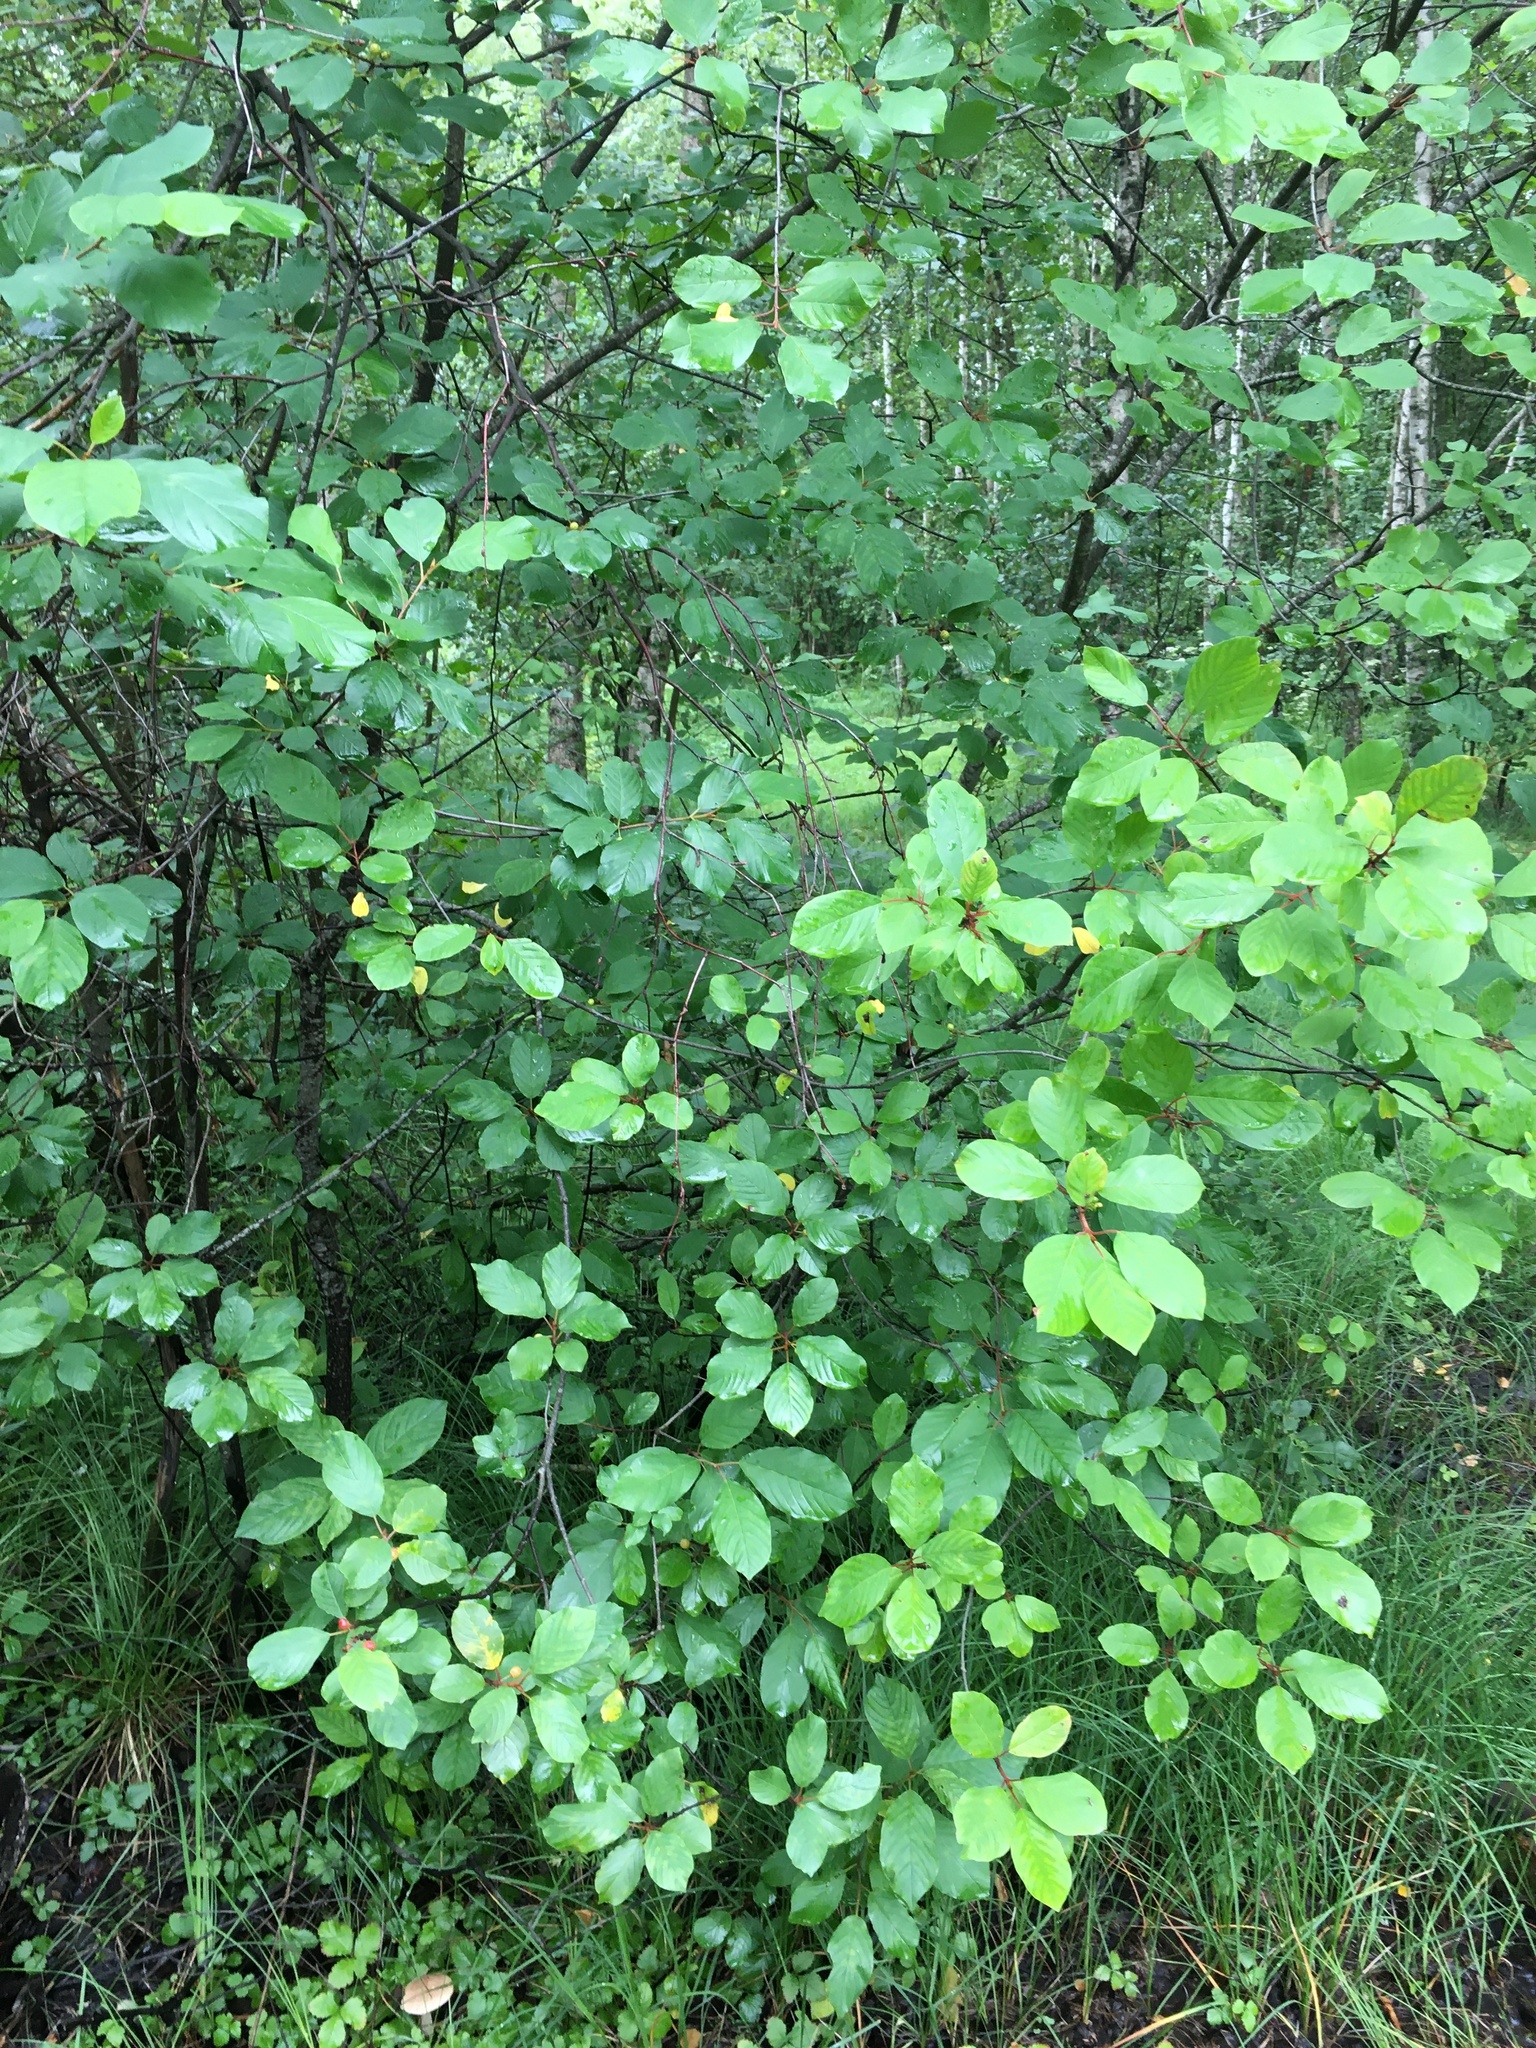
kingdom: Plantae
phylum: Tracheophyta
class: Magnoliopsida
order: Rosales
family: Rhamnaceae
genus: Frangula
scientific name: Frangula alnus
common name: Alder buckthorn
